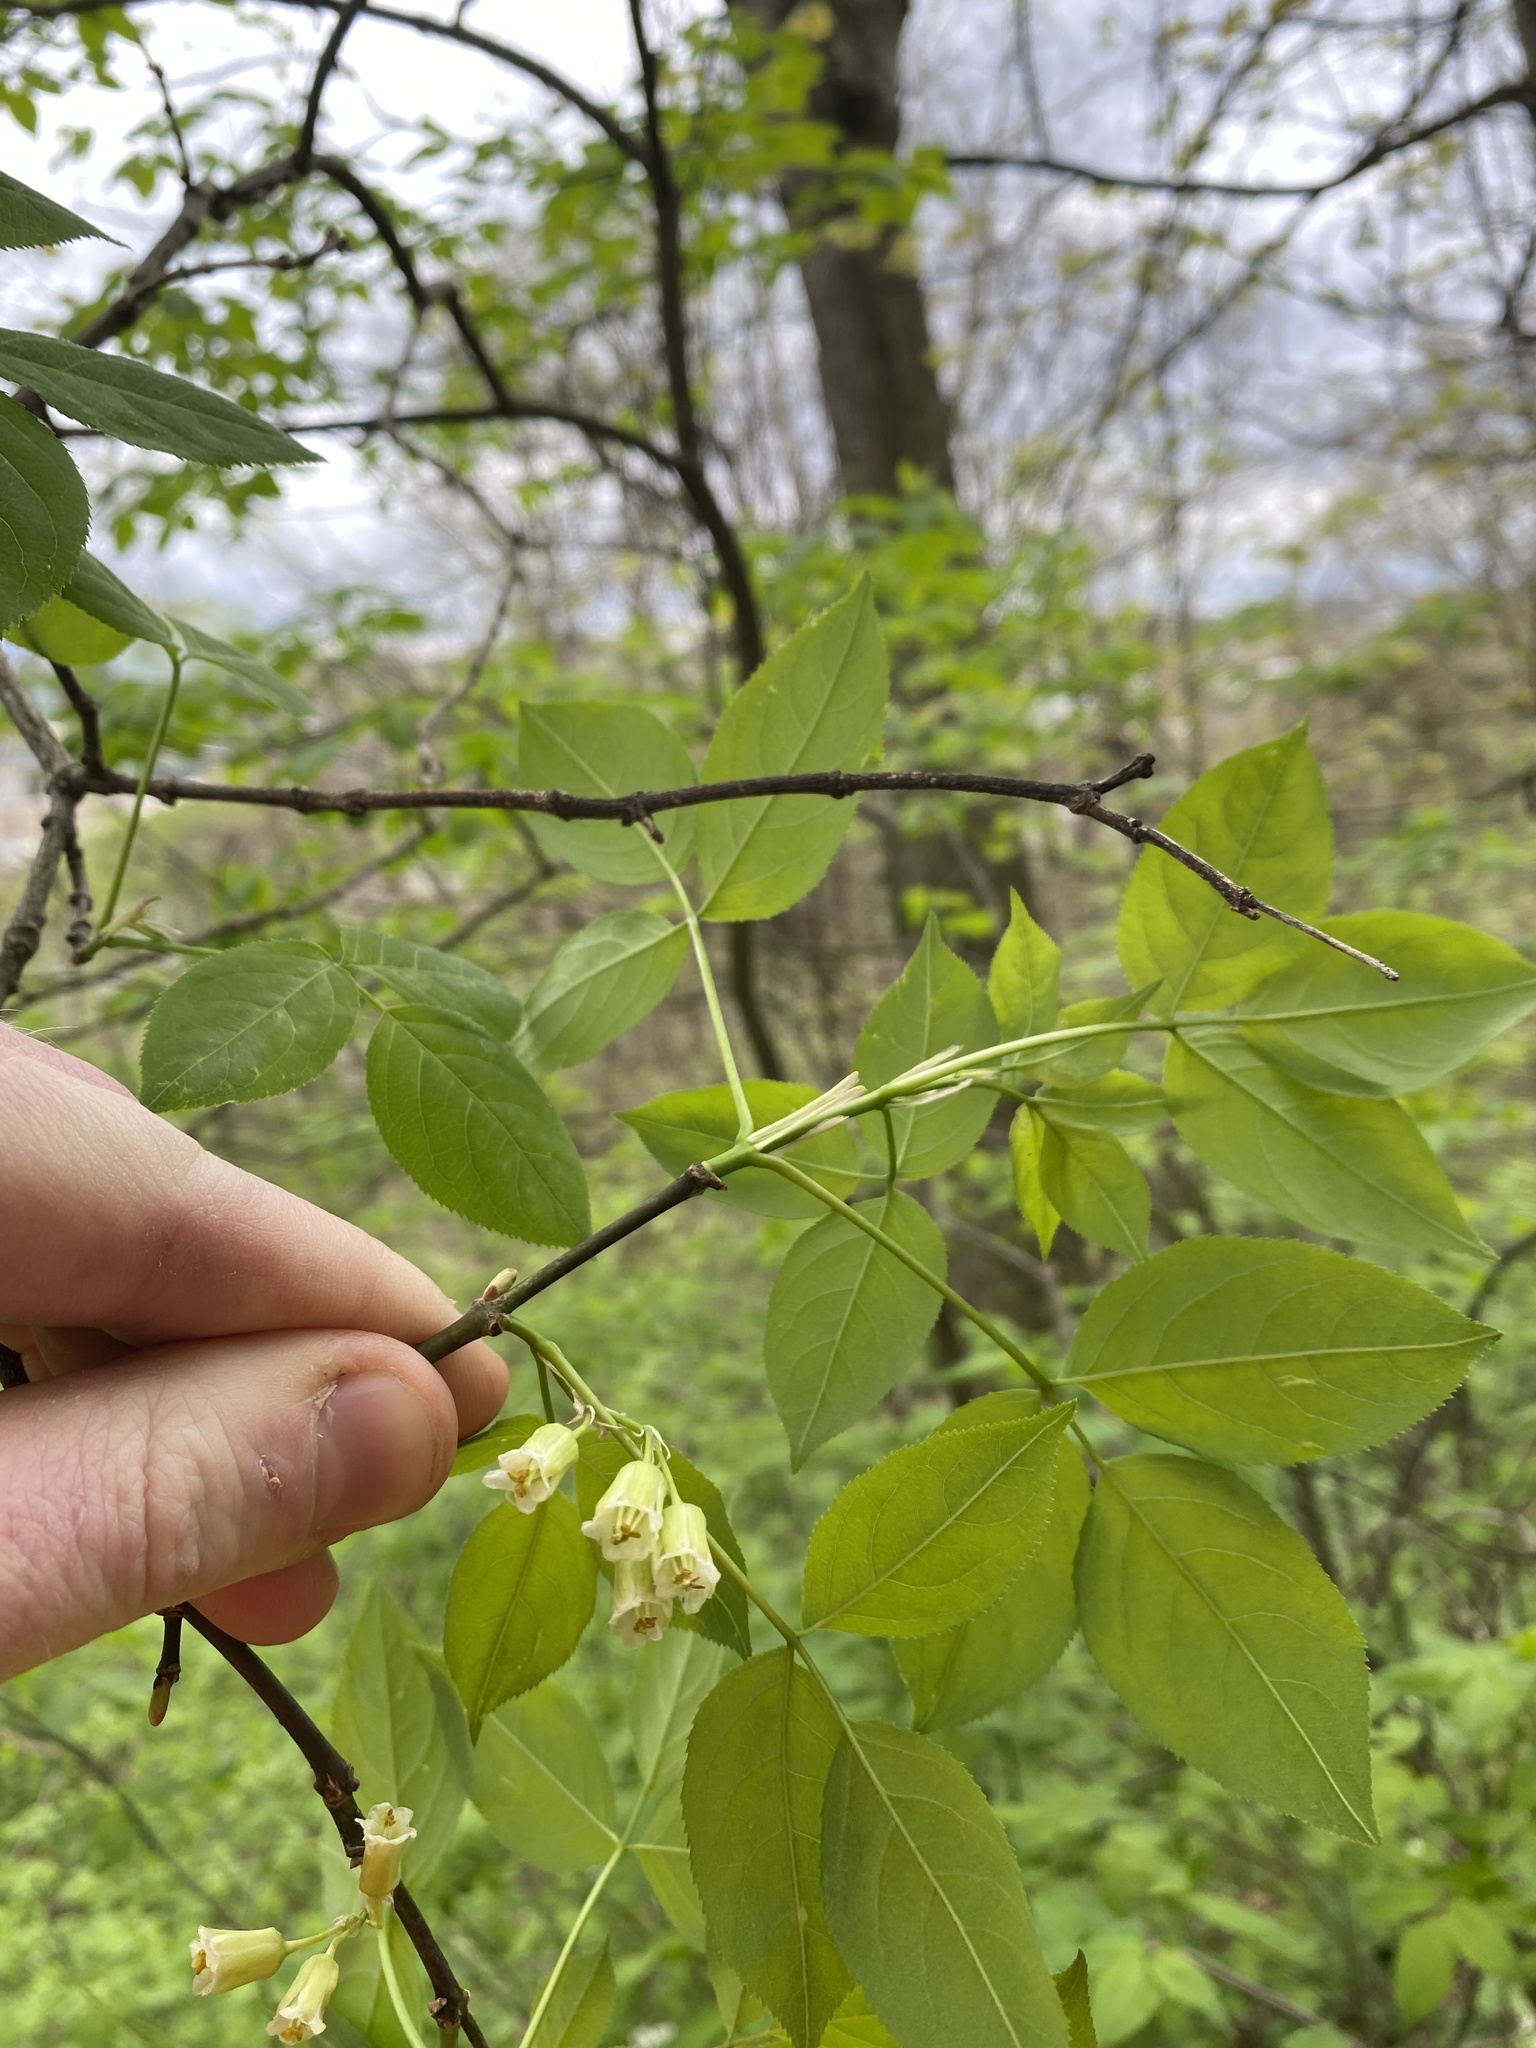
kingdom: Plantae
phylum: Tracheophyta
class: Magnoliopsida
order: Crossosomatales
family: Staphyleaceae
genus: Staphylea
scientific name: Staphylea trifolia
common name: American bladdernut
